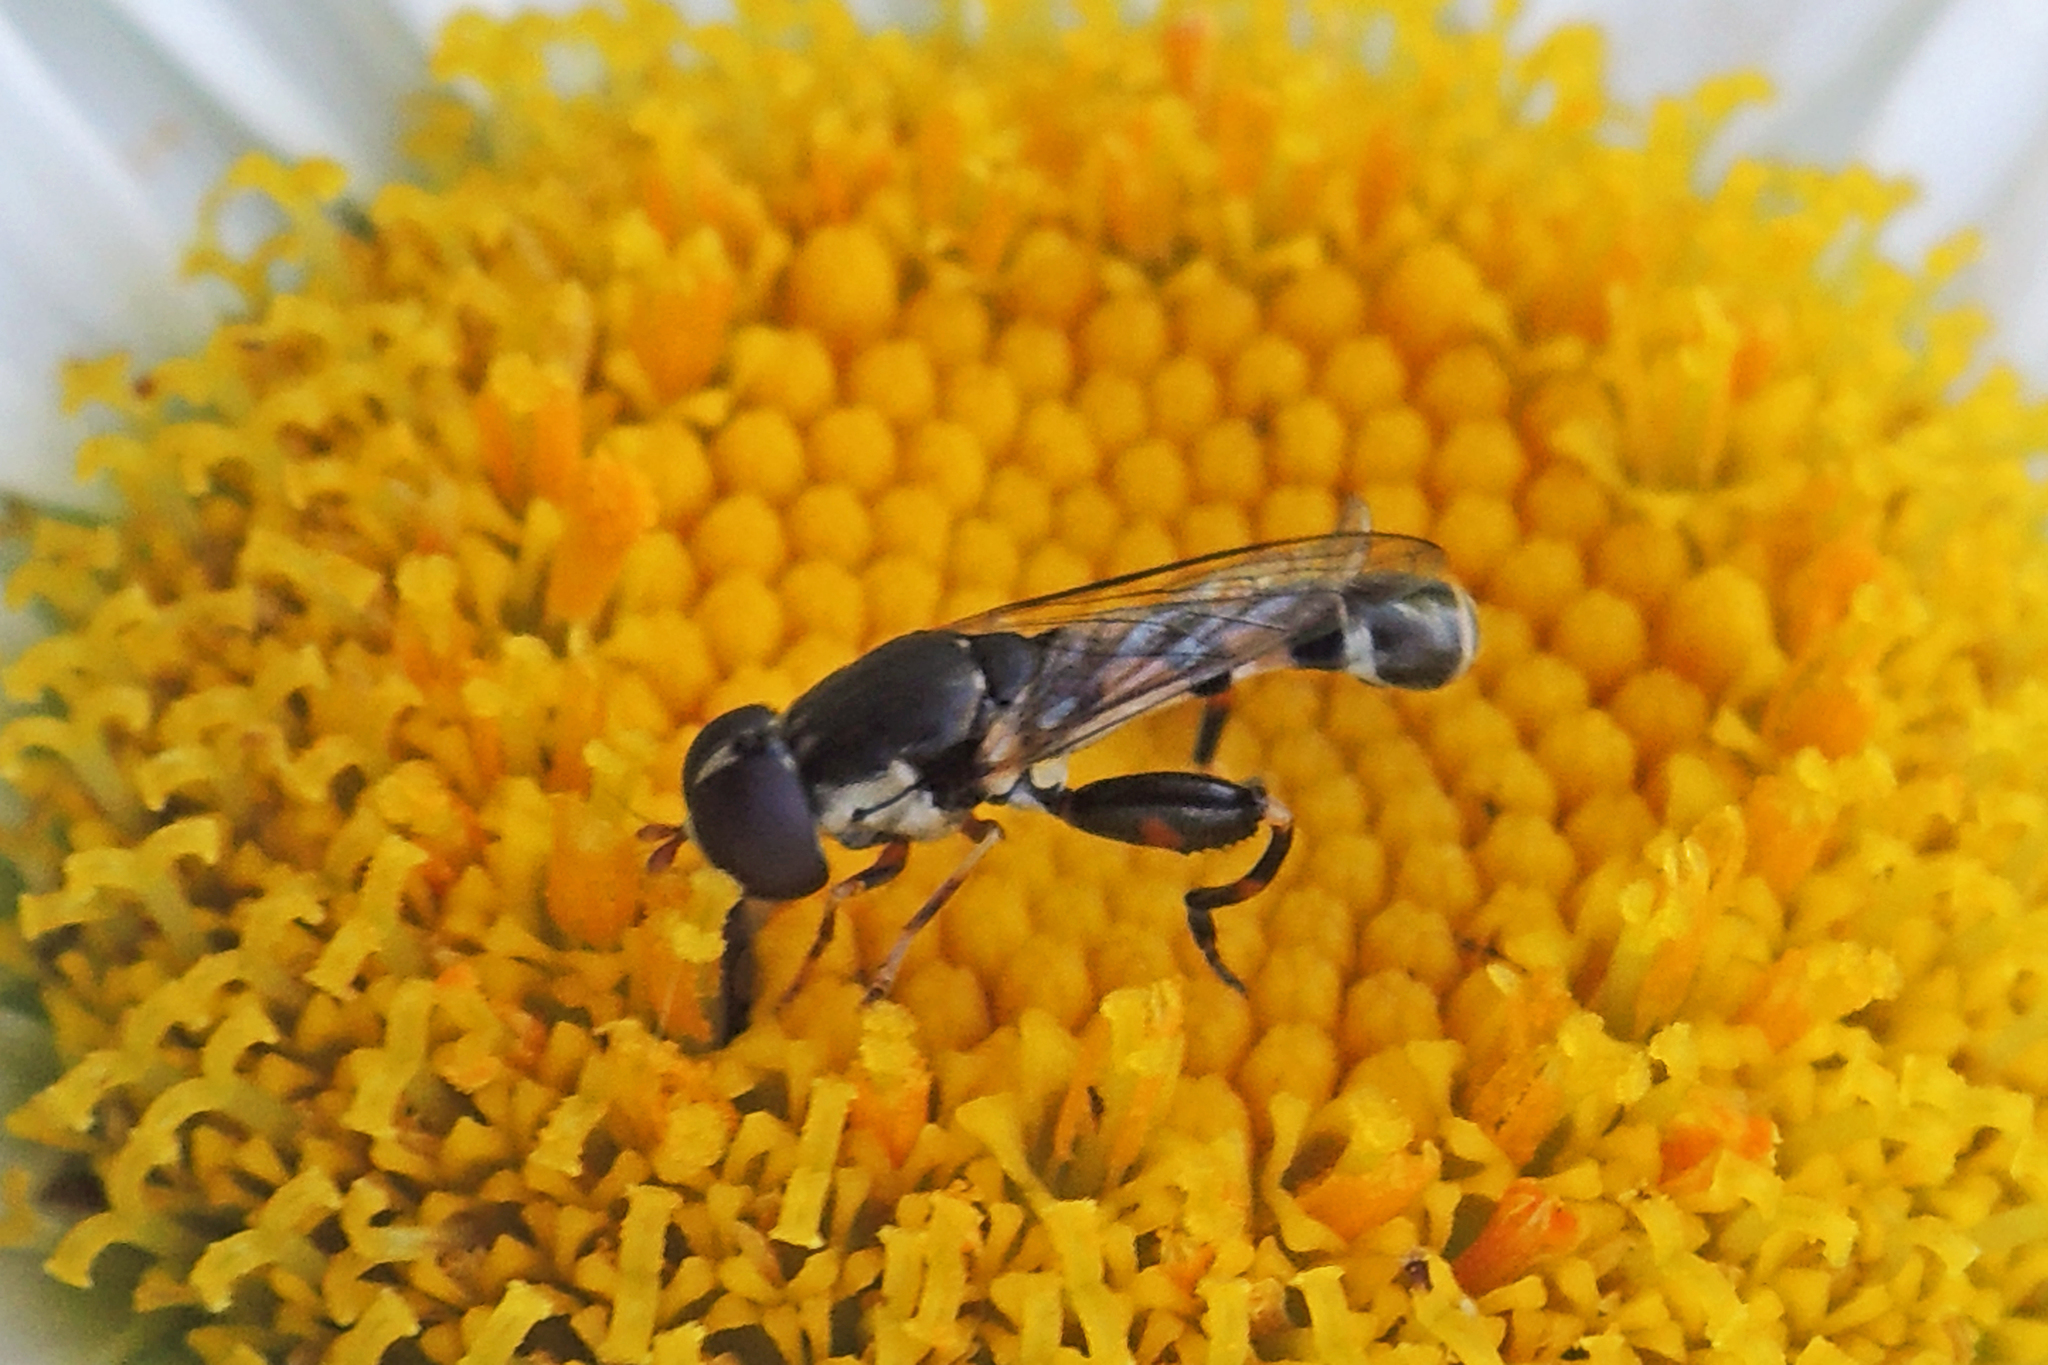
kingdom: Animalia
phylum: Arthropoda
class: Insecta
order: Diptera
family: Syrphidae
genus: Syritta
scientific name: Syritta pipiens
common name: Hover fly
